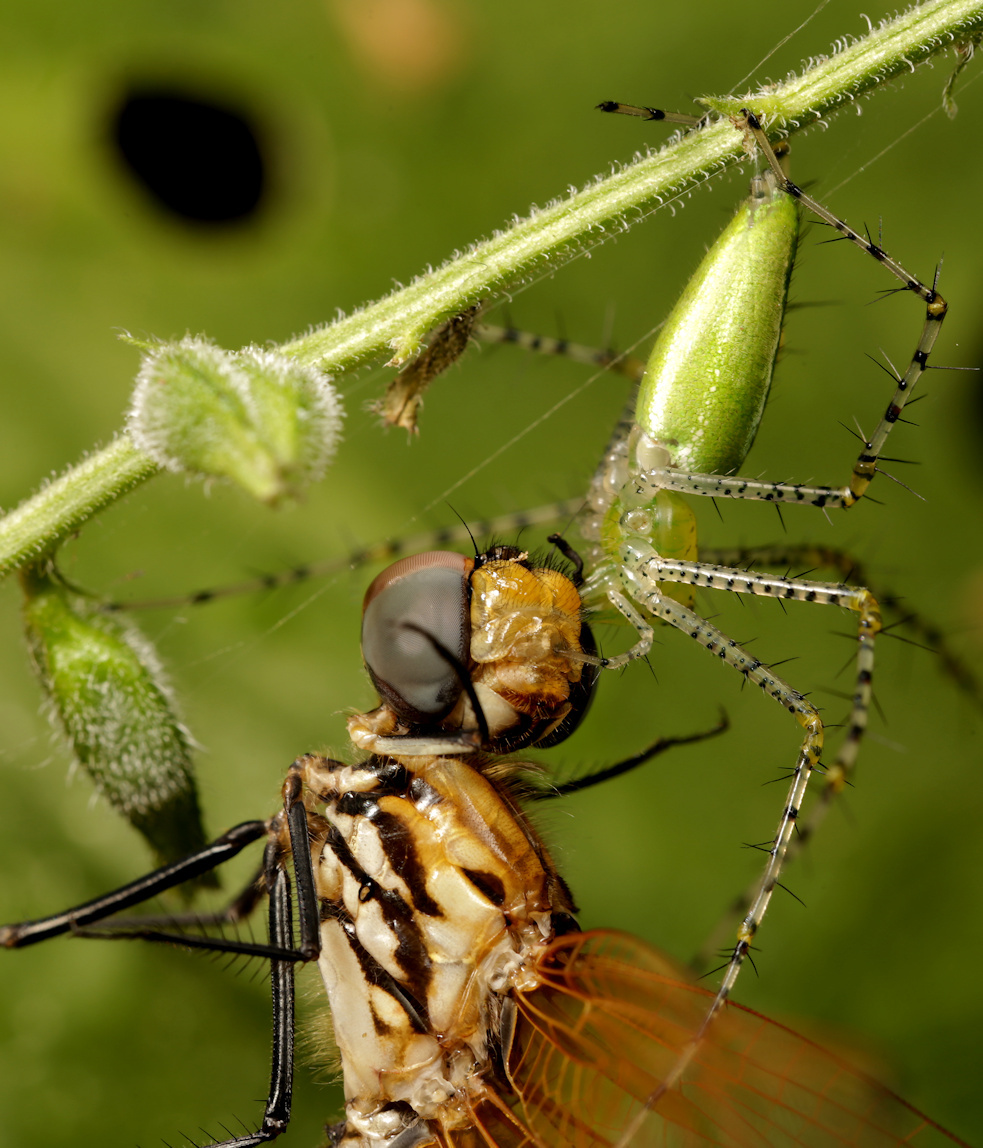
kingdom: Animalia
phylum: Arthropoda
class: Insecta
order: Odonata
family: Libellulidae
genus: Trithemis
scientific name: Trithemis arteriosa
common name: Red-veined dropwing
